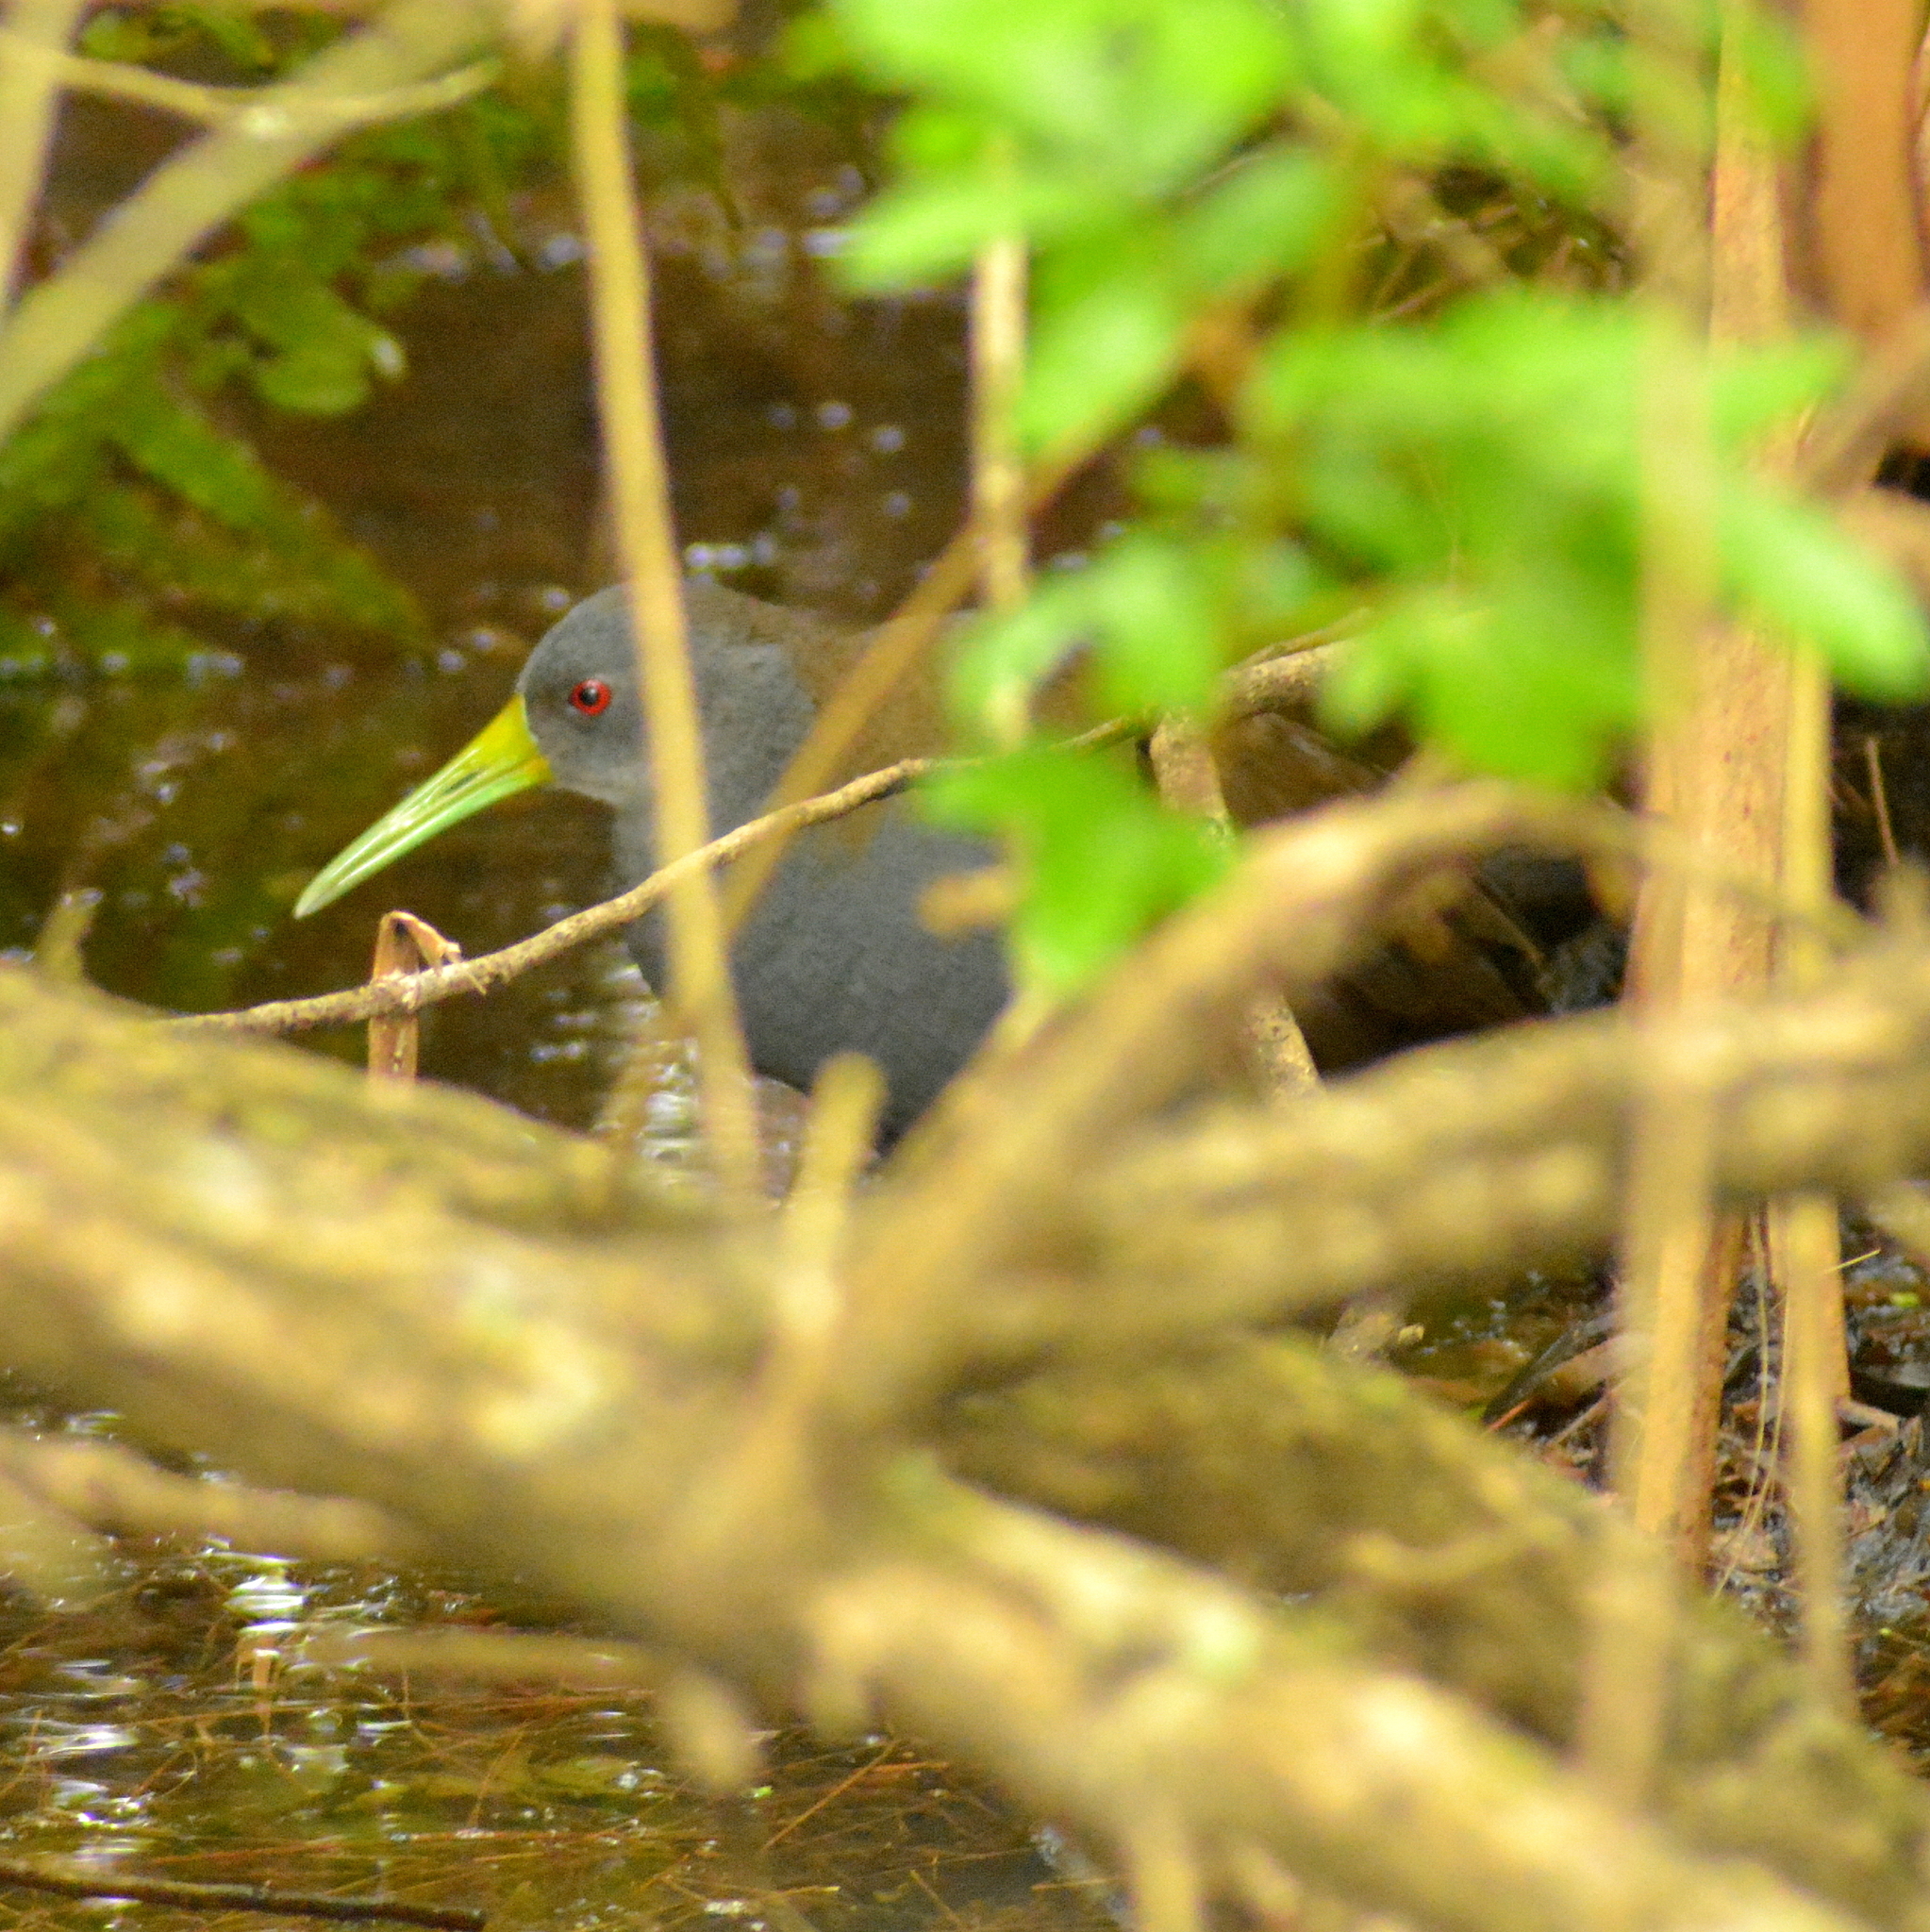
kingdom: Animalia
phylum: Chordata
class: Aves
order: Gruiformes
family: Rallidae
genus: Pardirallus
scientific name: Pardirallus nigricans
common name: Blackish rail
